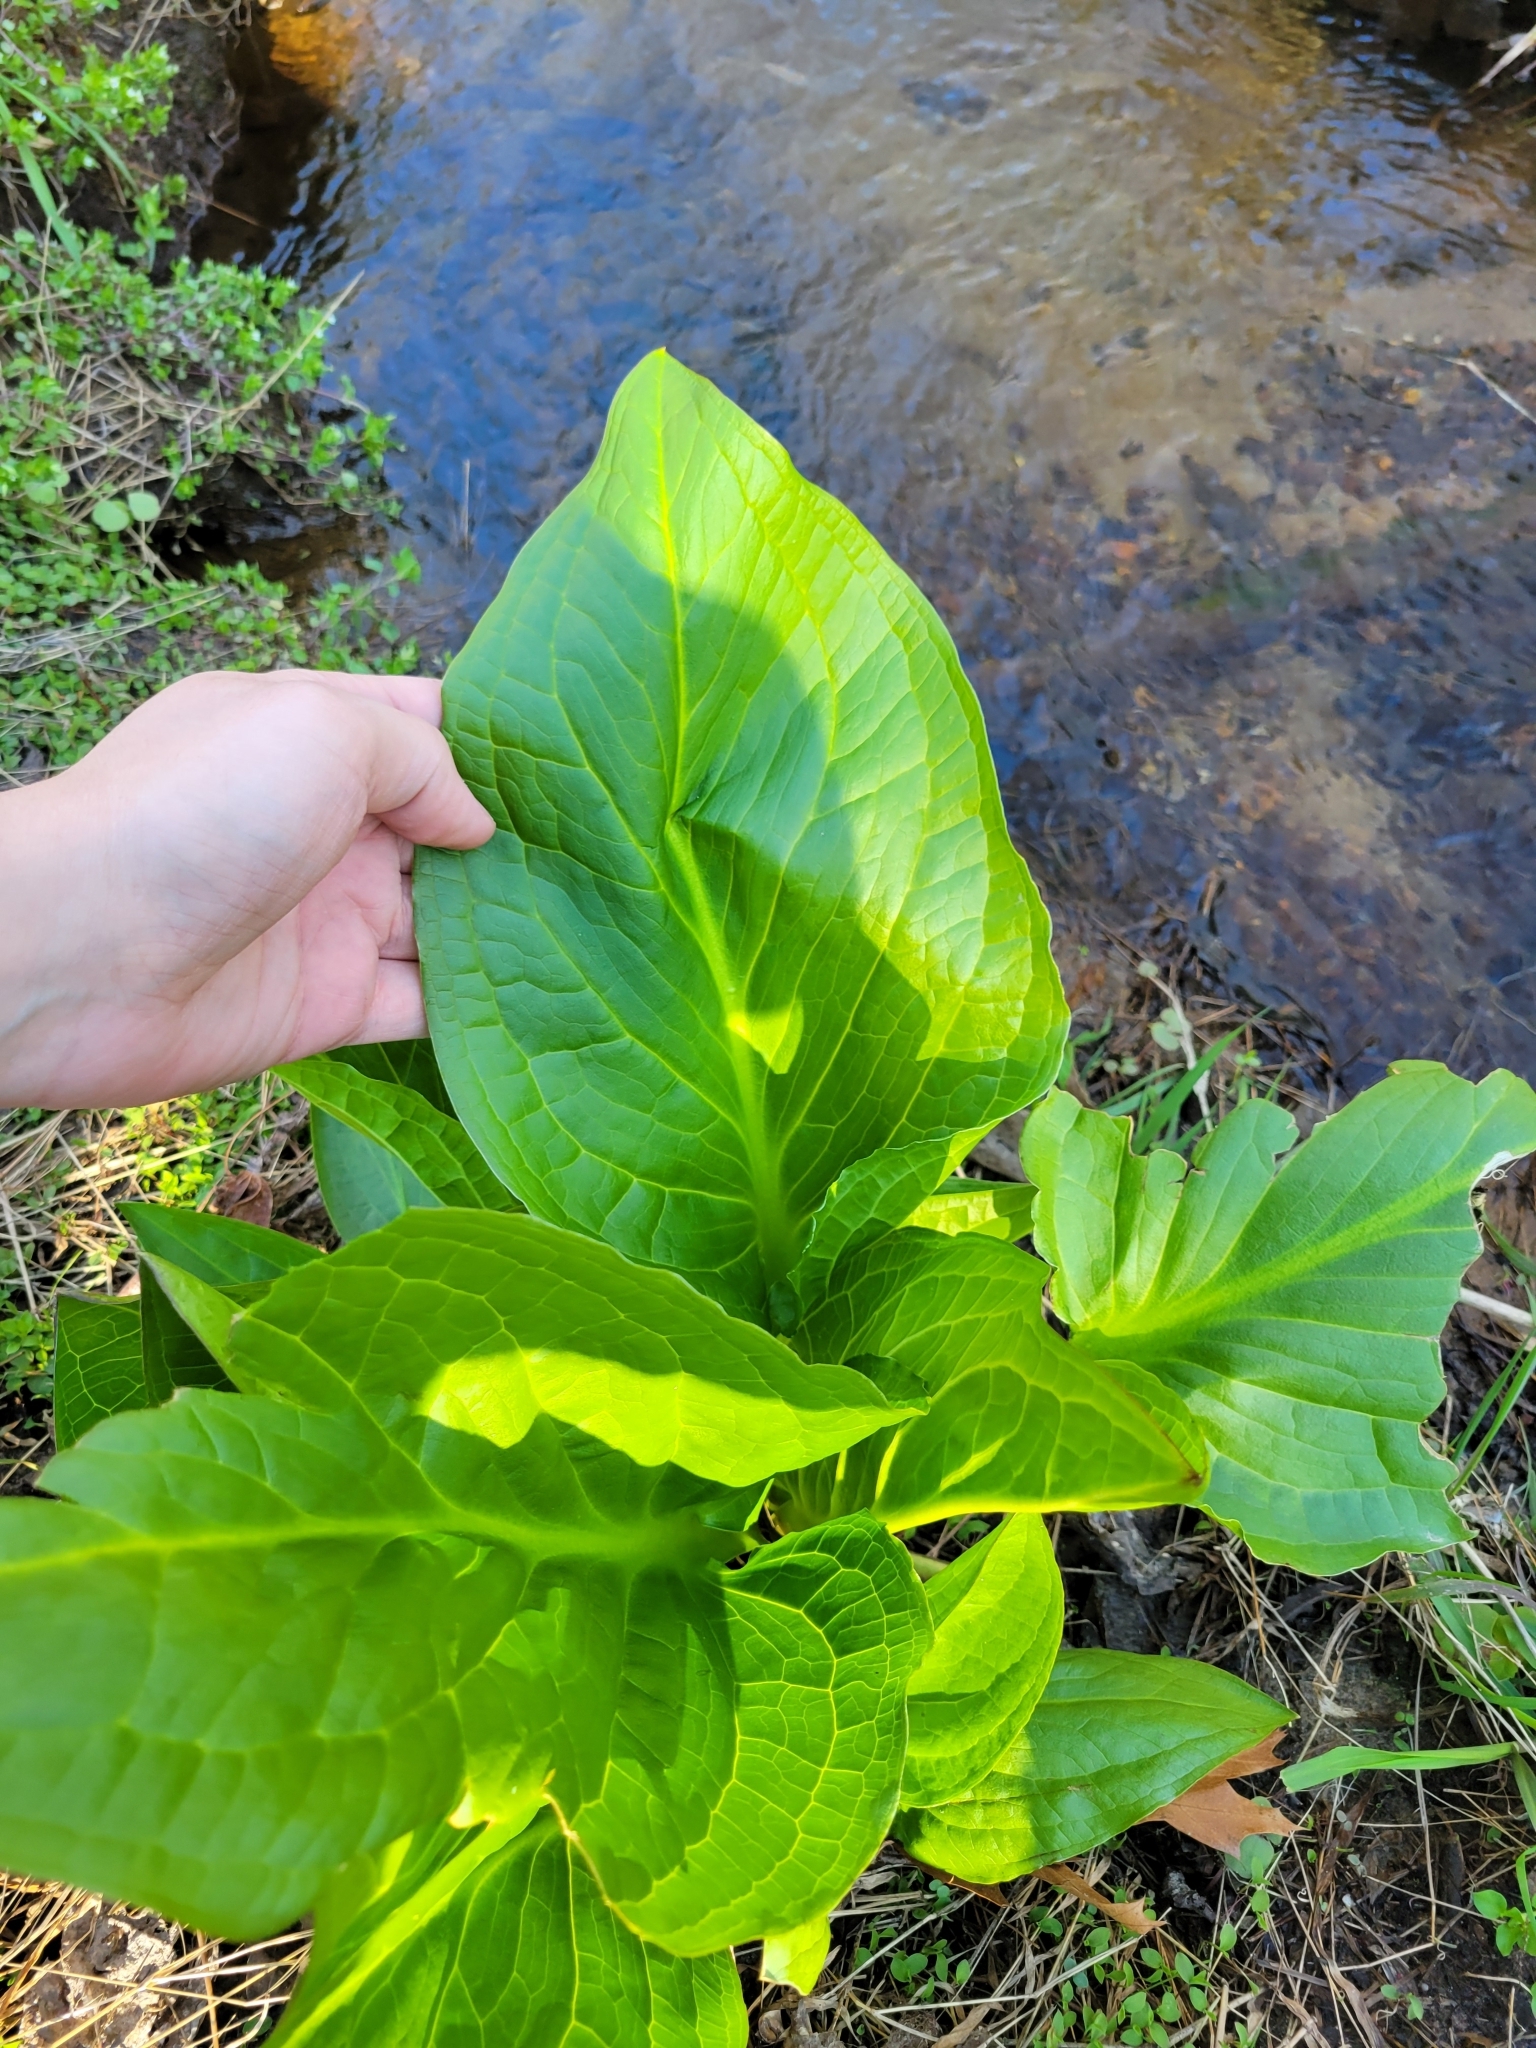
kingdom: Plantae
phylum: Tracheophyta
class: Liliopsida
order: Alismatales
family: Araceae
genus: Symplocarpus
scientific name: Symplocarpus foetidus
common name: Eastern skunk cabbage
